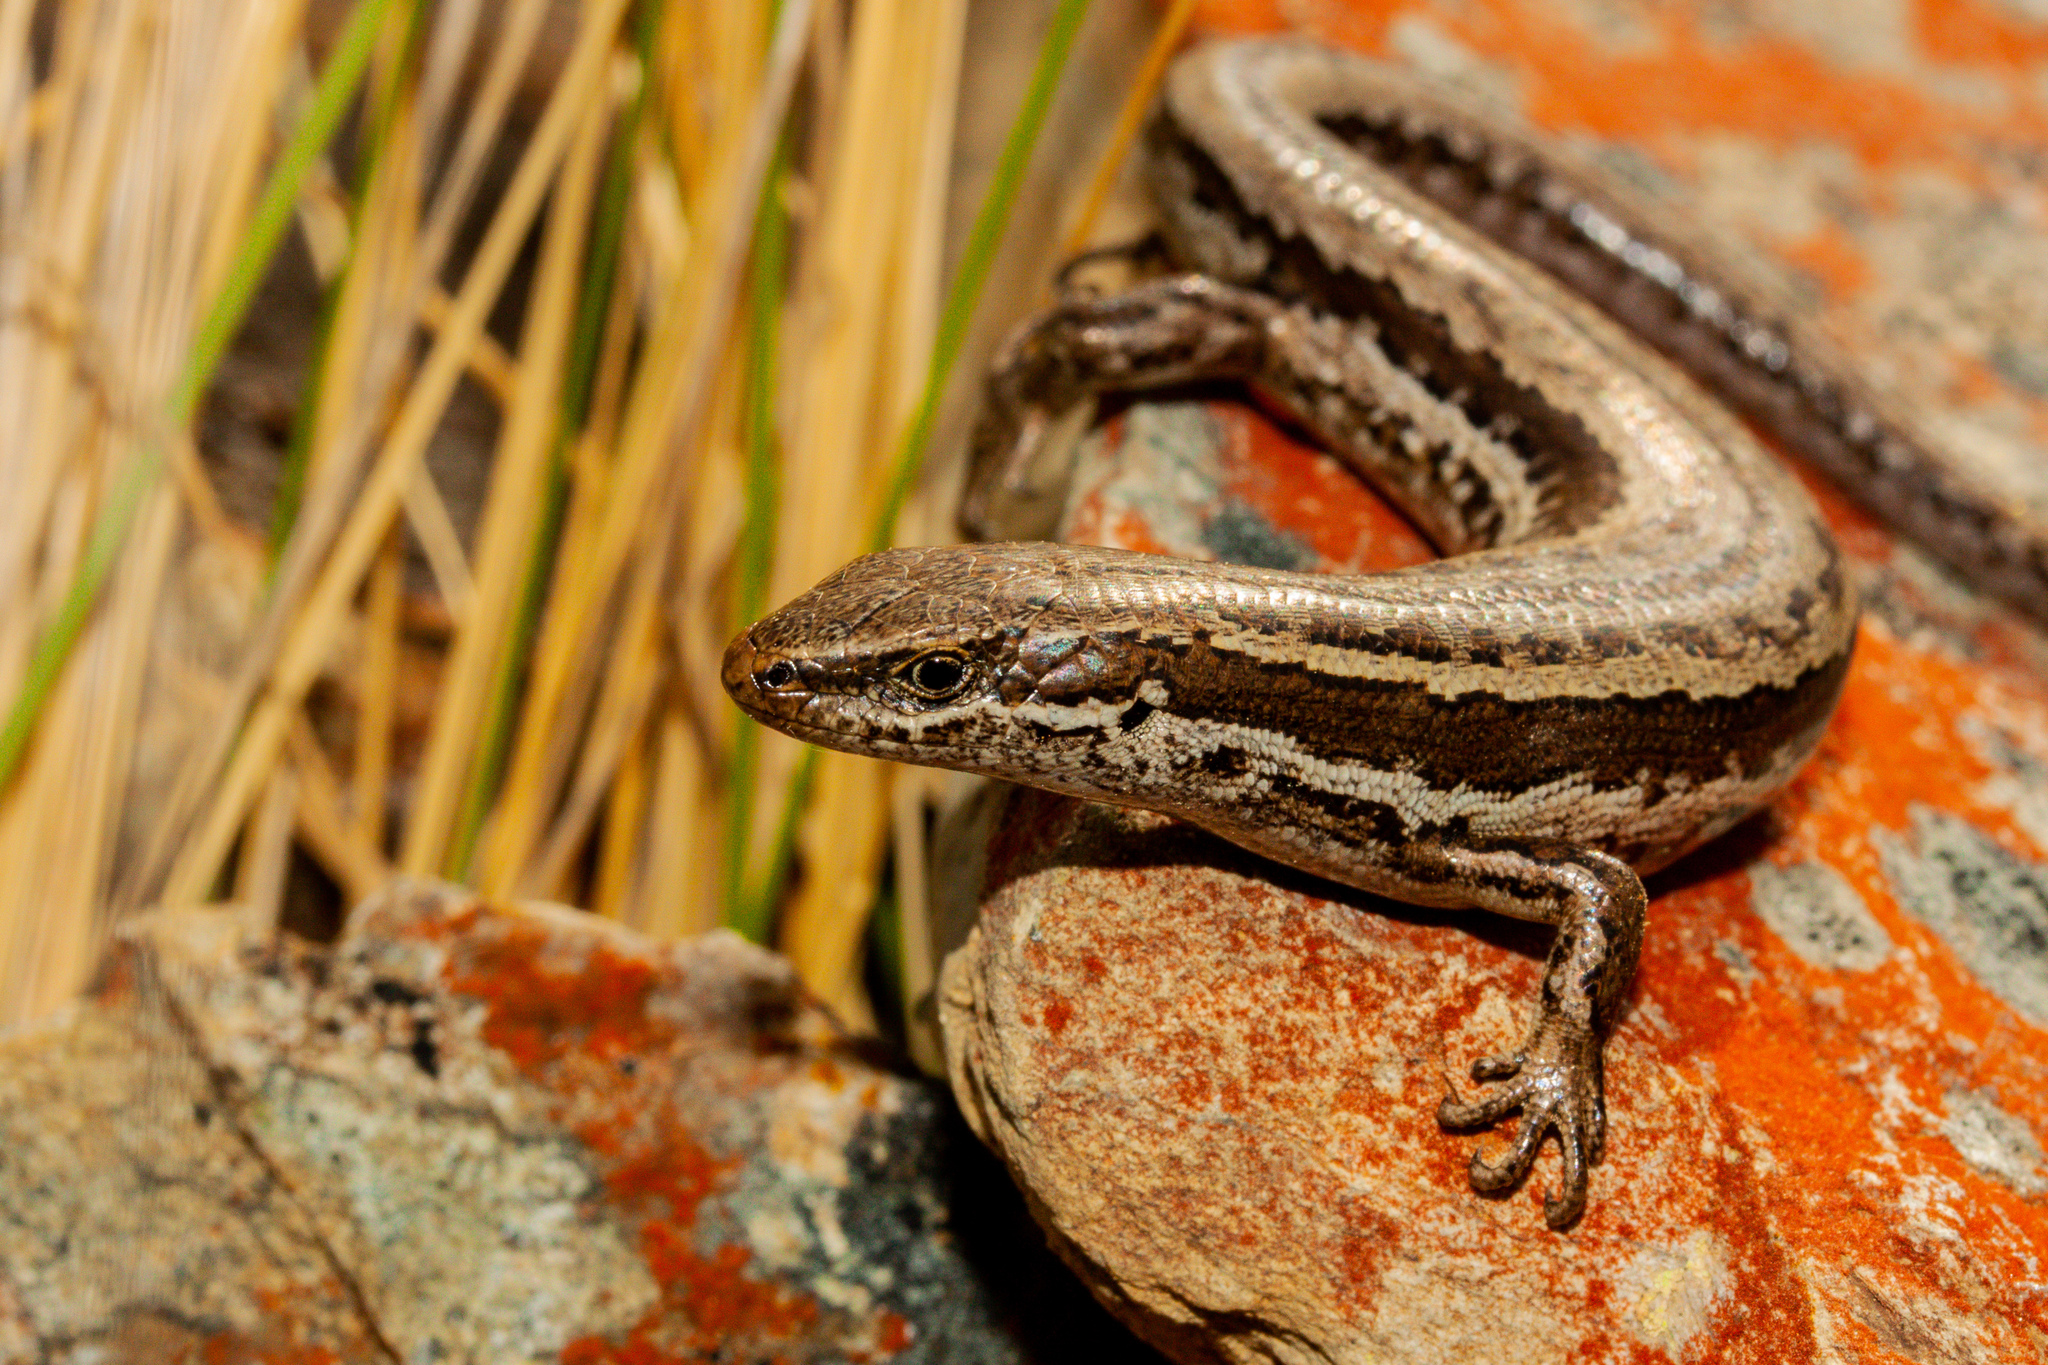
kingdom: Animalia
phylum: Chordata
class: Squamata
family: Scincidae
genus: Oligosoma
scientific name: Oligosoma maccanni
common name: Mccann’s skink
